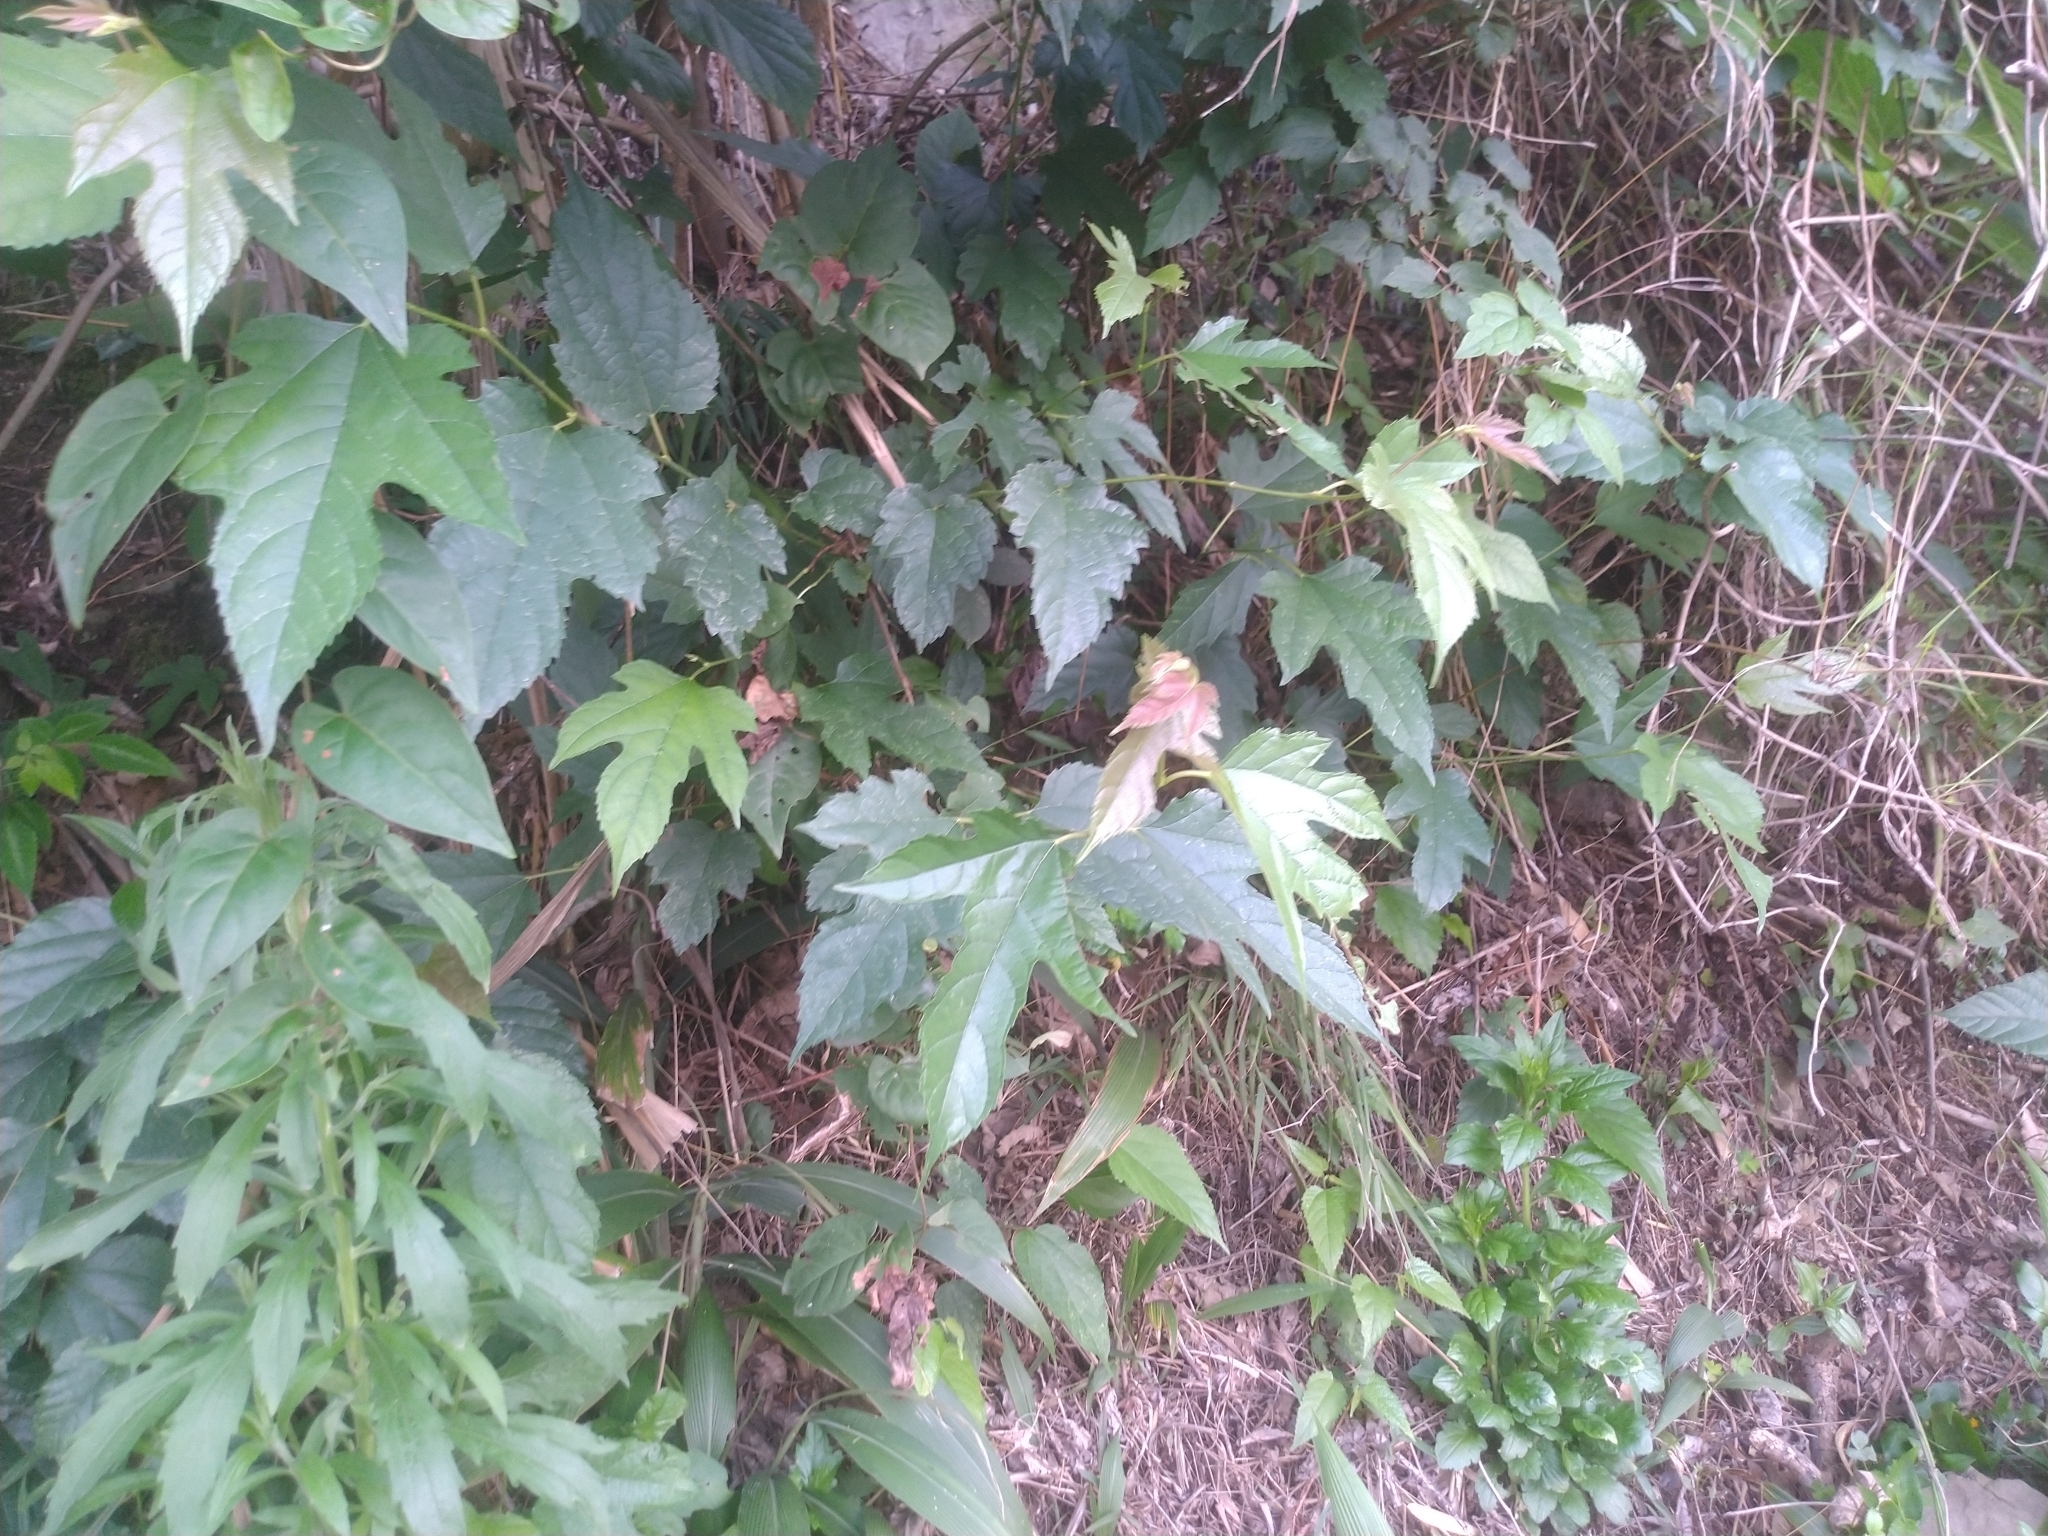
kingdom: Plantae
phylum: Tracheophyta
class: Magnoliopsida
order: Rosales
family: Moraceae
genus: Morus
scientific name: Morus indica
